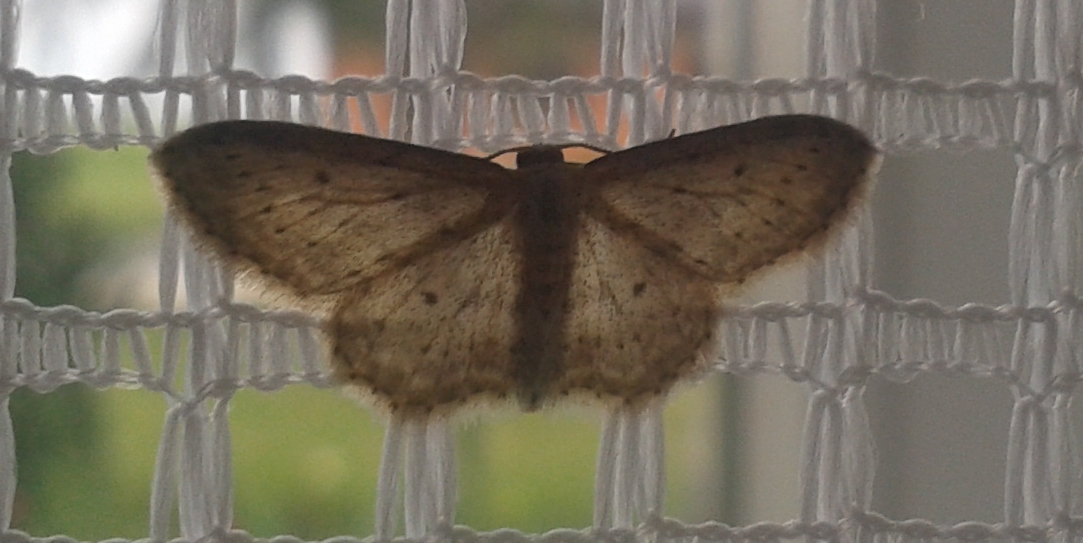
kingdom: Animalia
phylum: Arthropoda
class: Insecta
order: Lepidoptera
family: Geometridae
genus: Idaea
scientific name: Idaea seriata
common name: Small dusty wave
